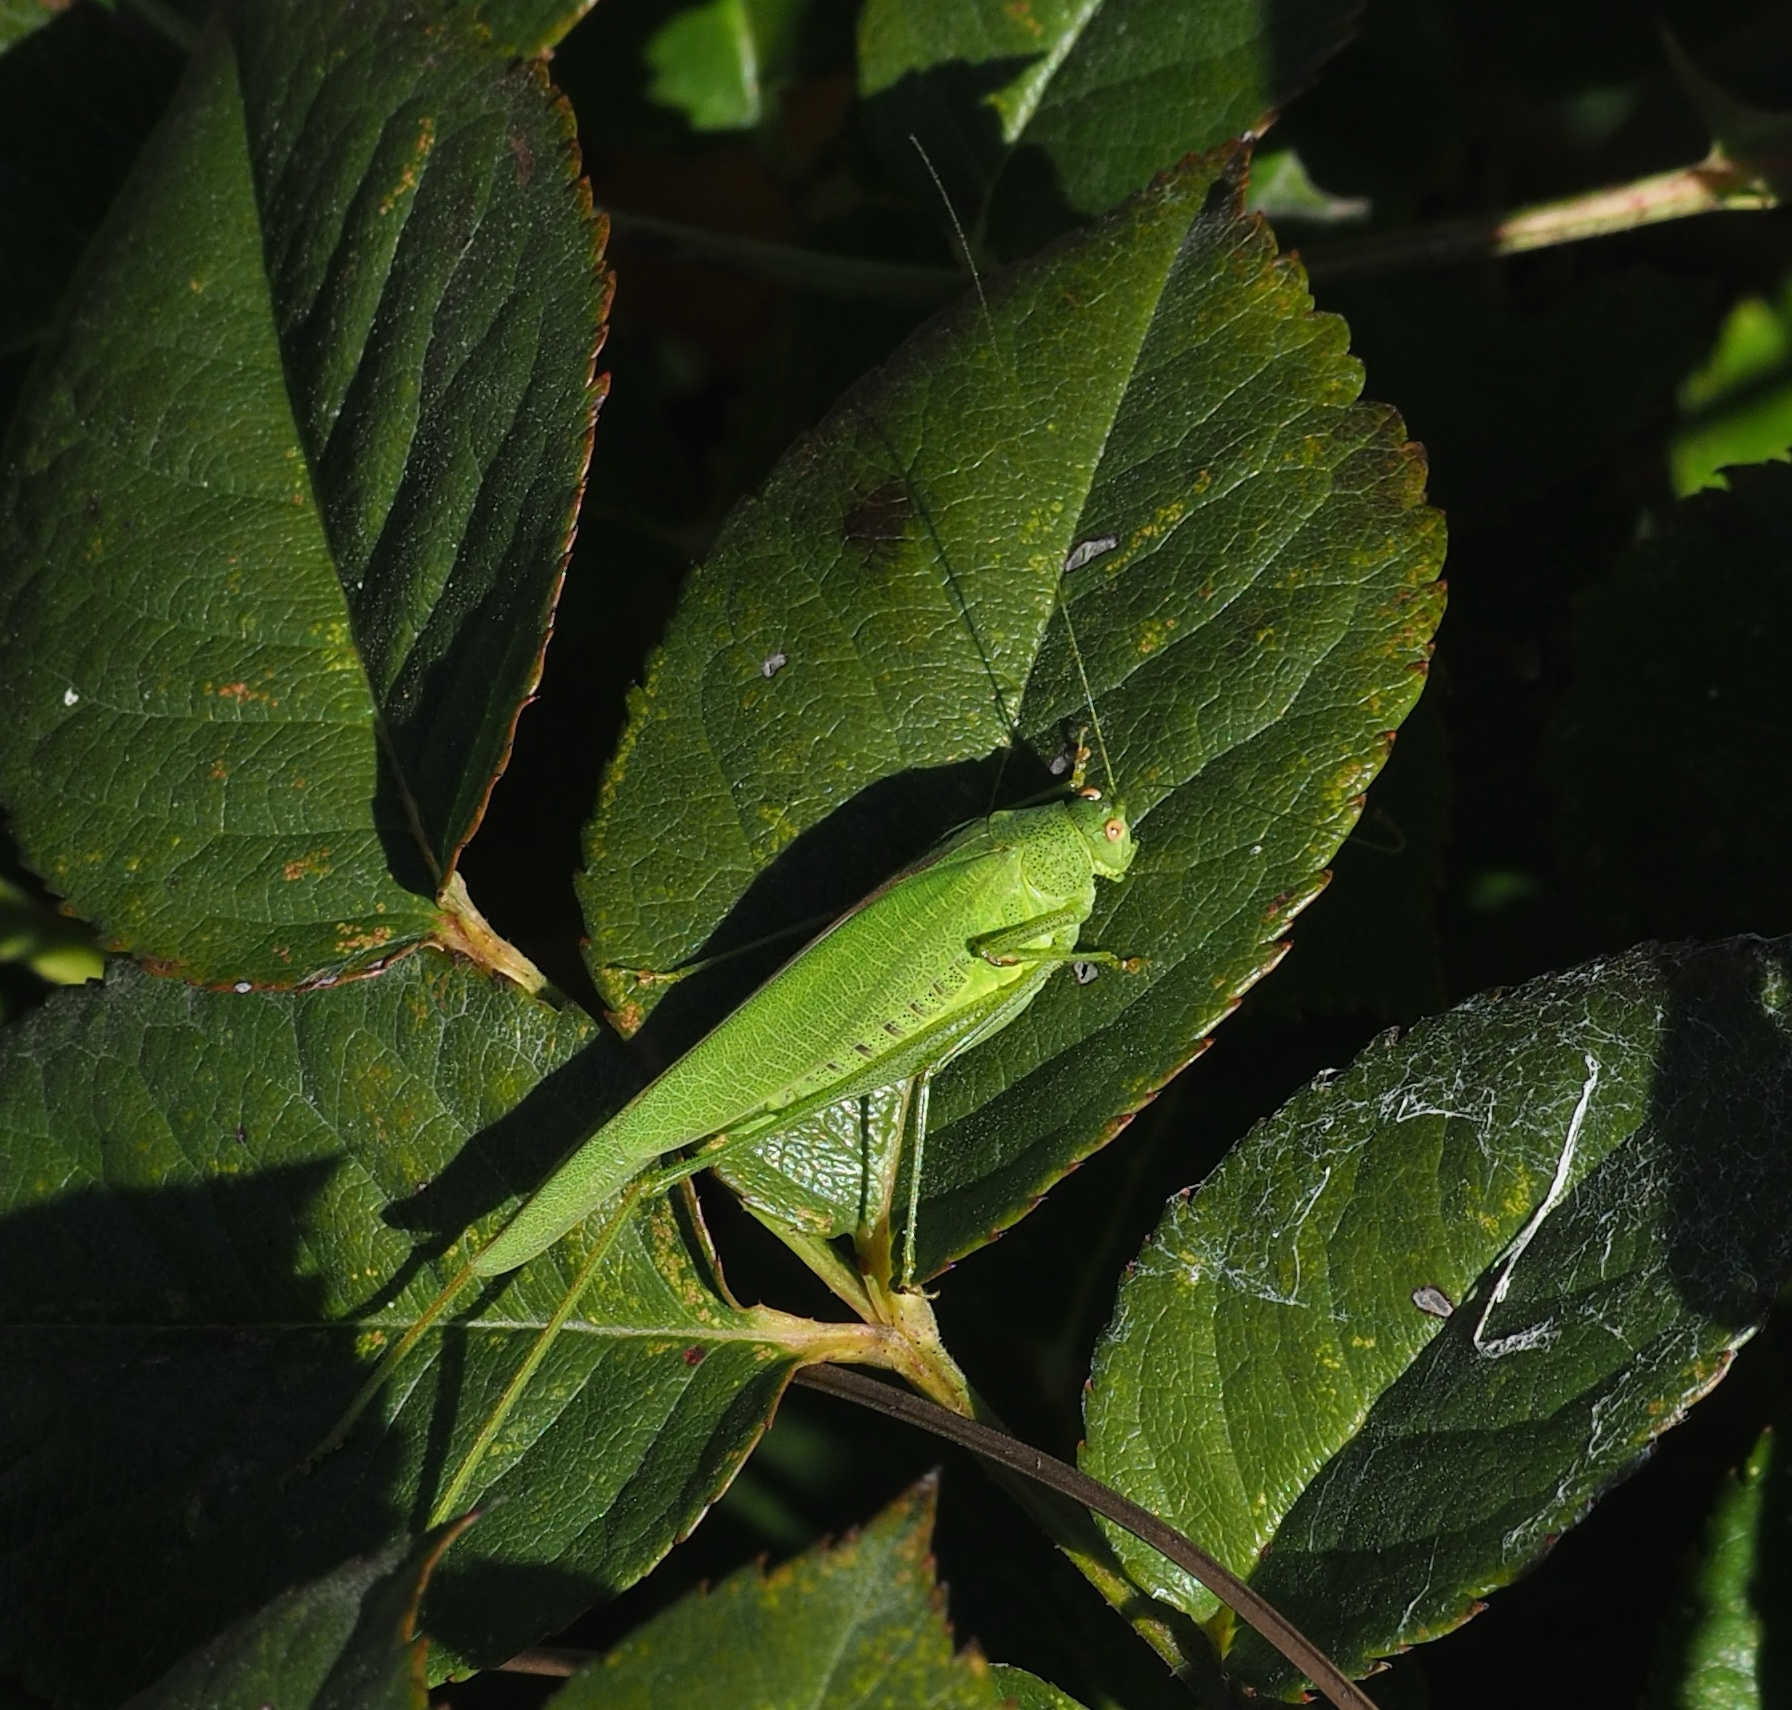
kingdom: Animalia
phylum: Arthropoda
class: Insecta
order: Orthoptera
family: Tettigoniidae
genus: Phaneroptera
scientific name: Phaneroptera nana
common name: Southern sickle bush-cricket
